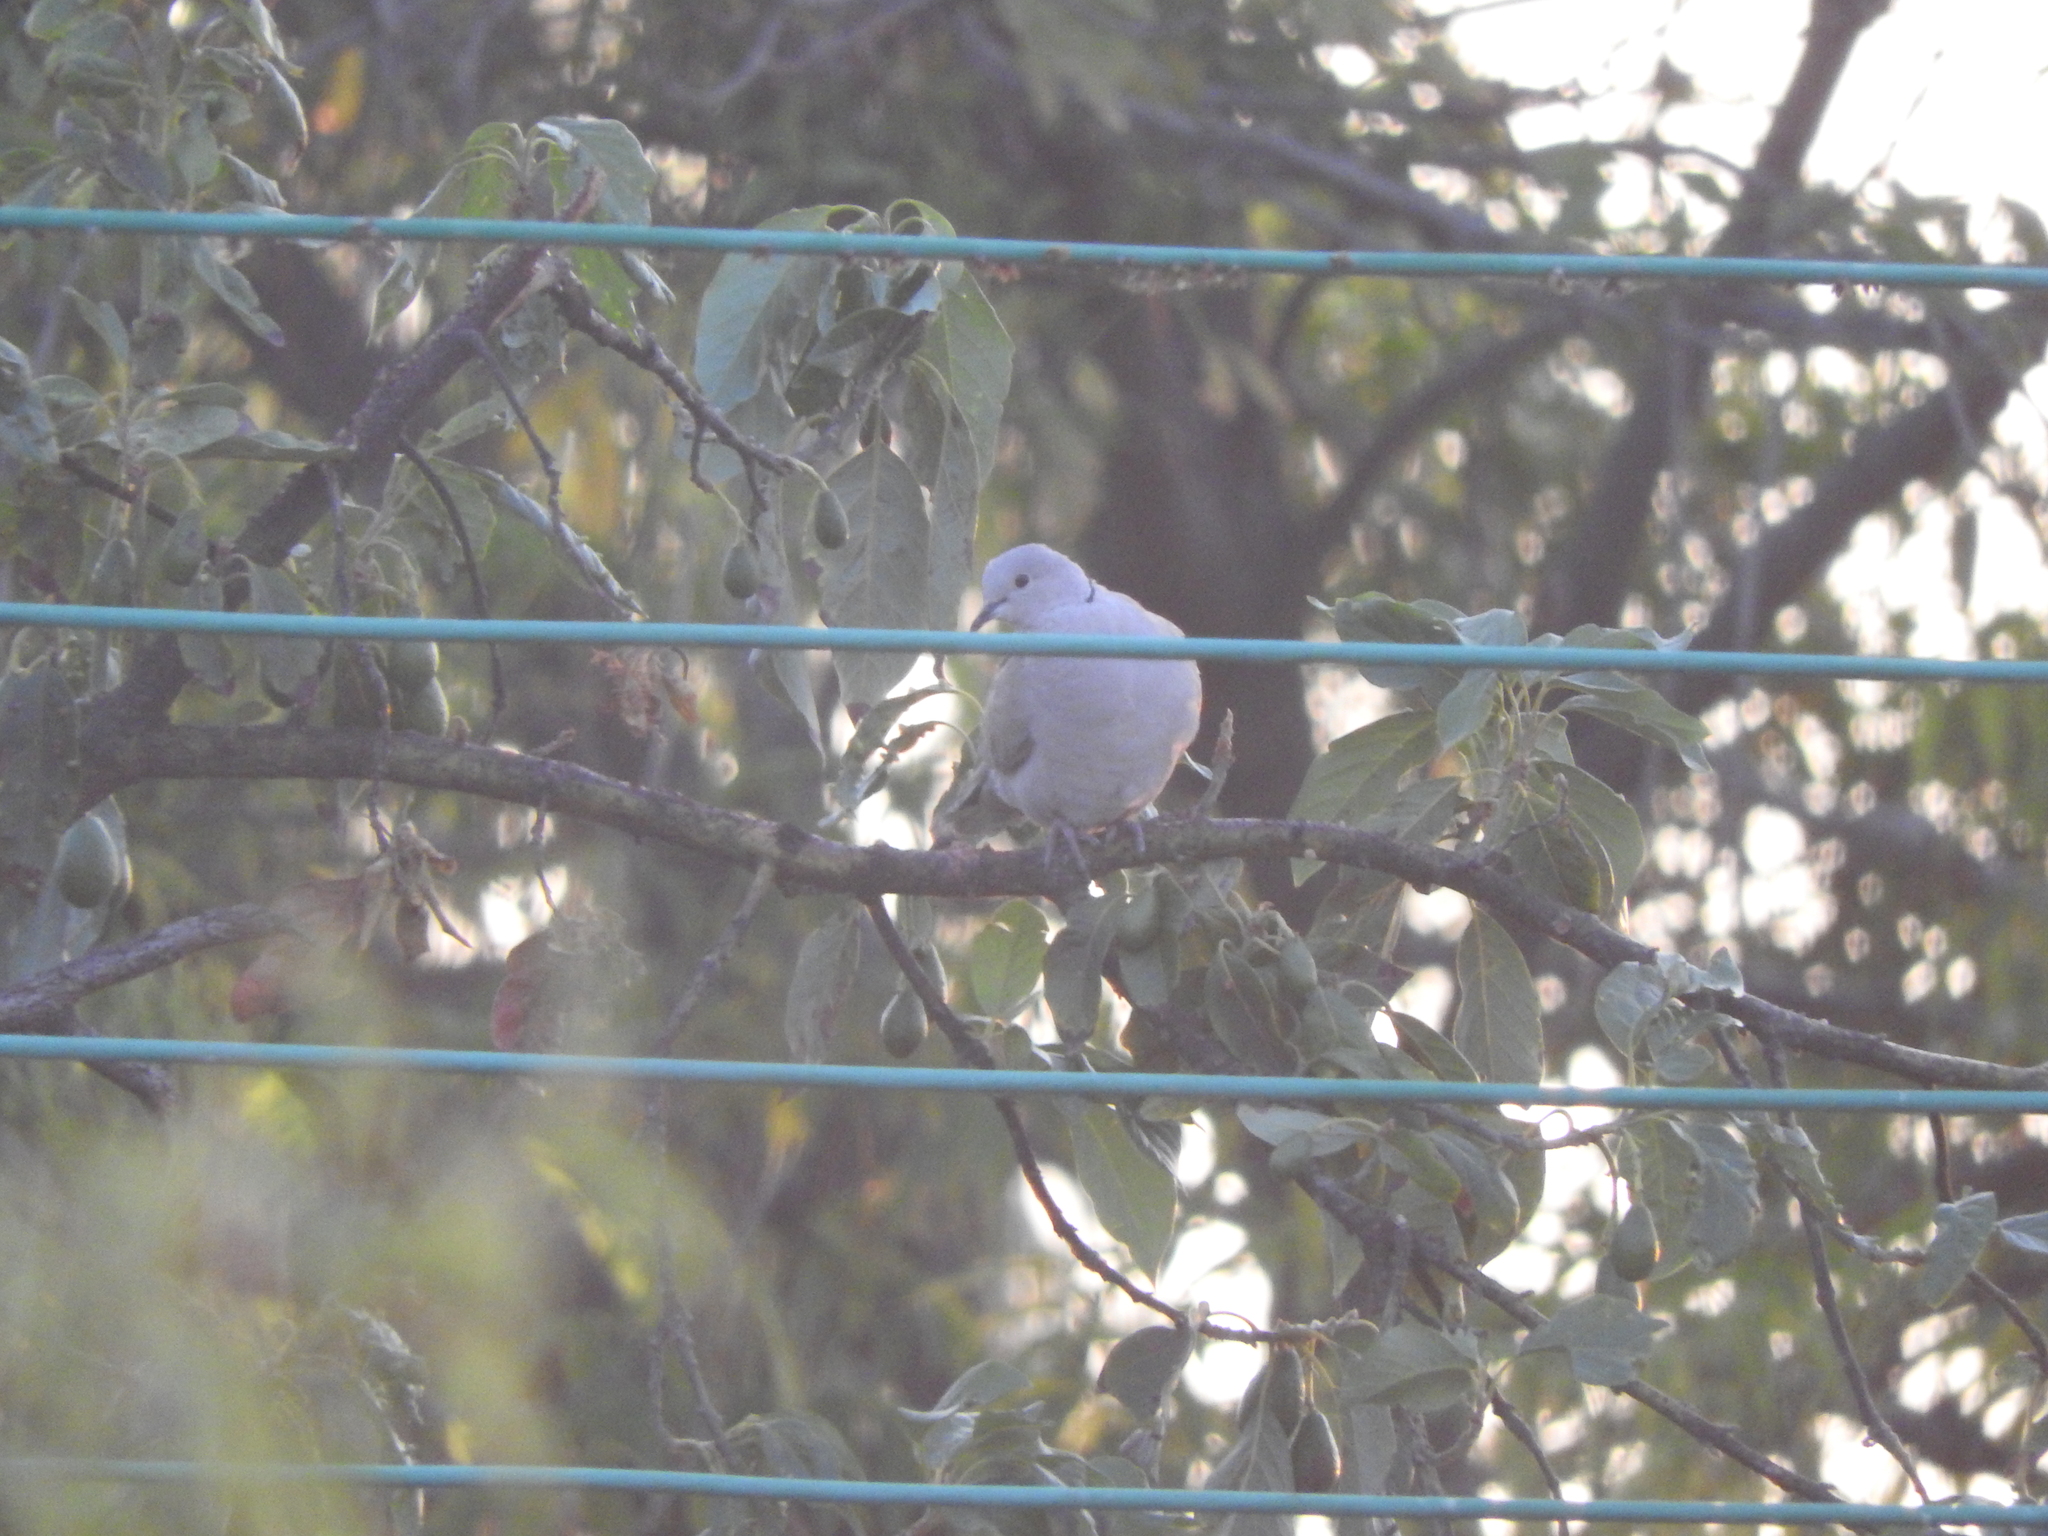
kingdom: Animalia
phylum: Chordata
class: Aves
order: Columbiformes
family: Columbidae
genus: Streptopelia
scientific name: Streptopelia decaocto
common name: Eurasian collared dove
